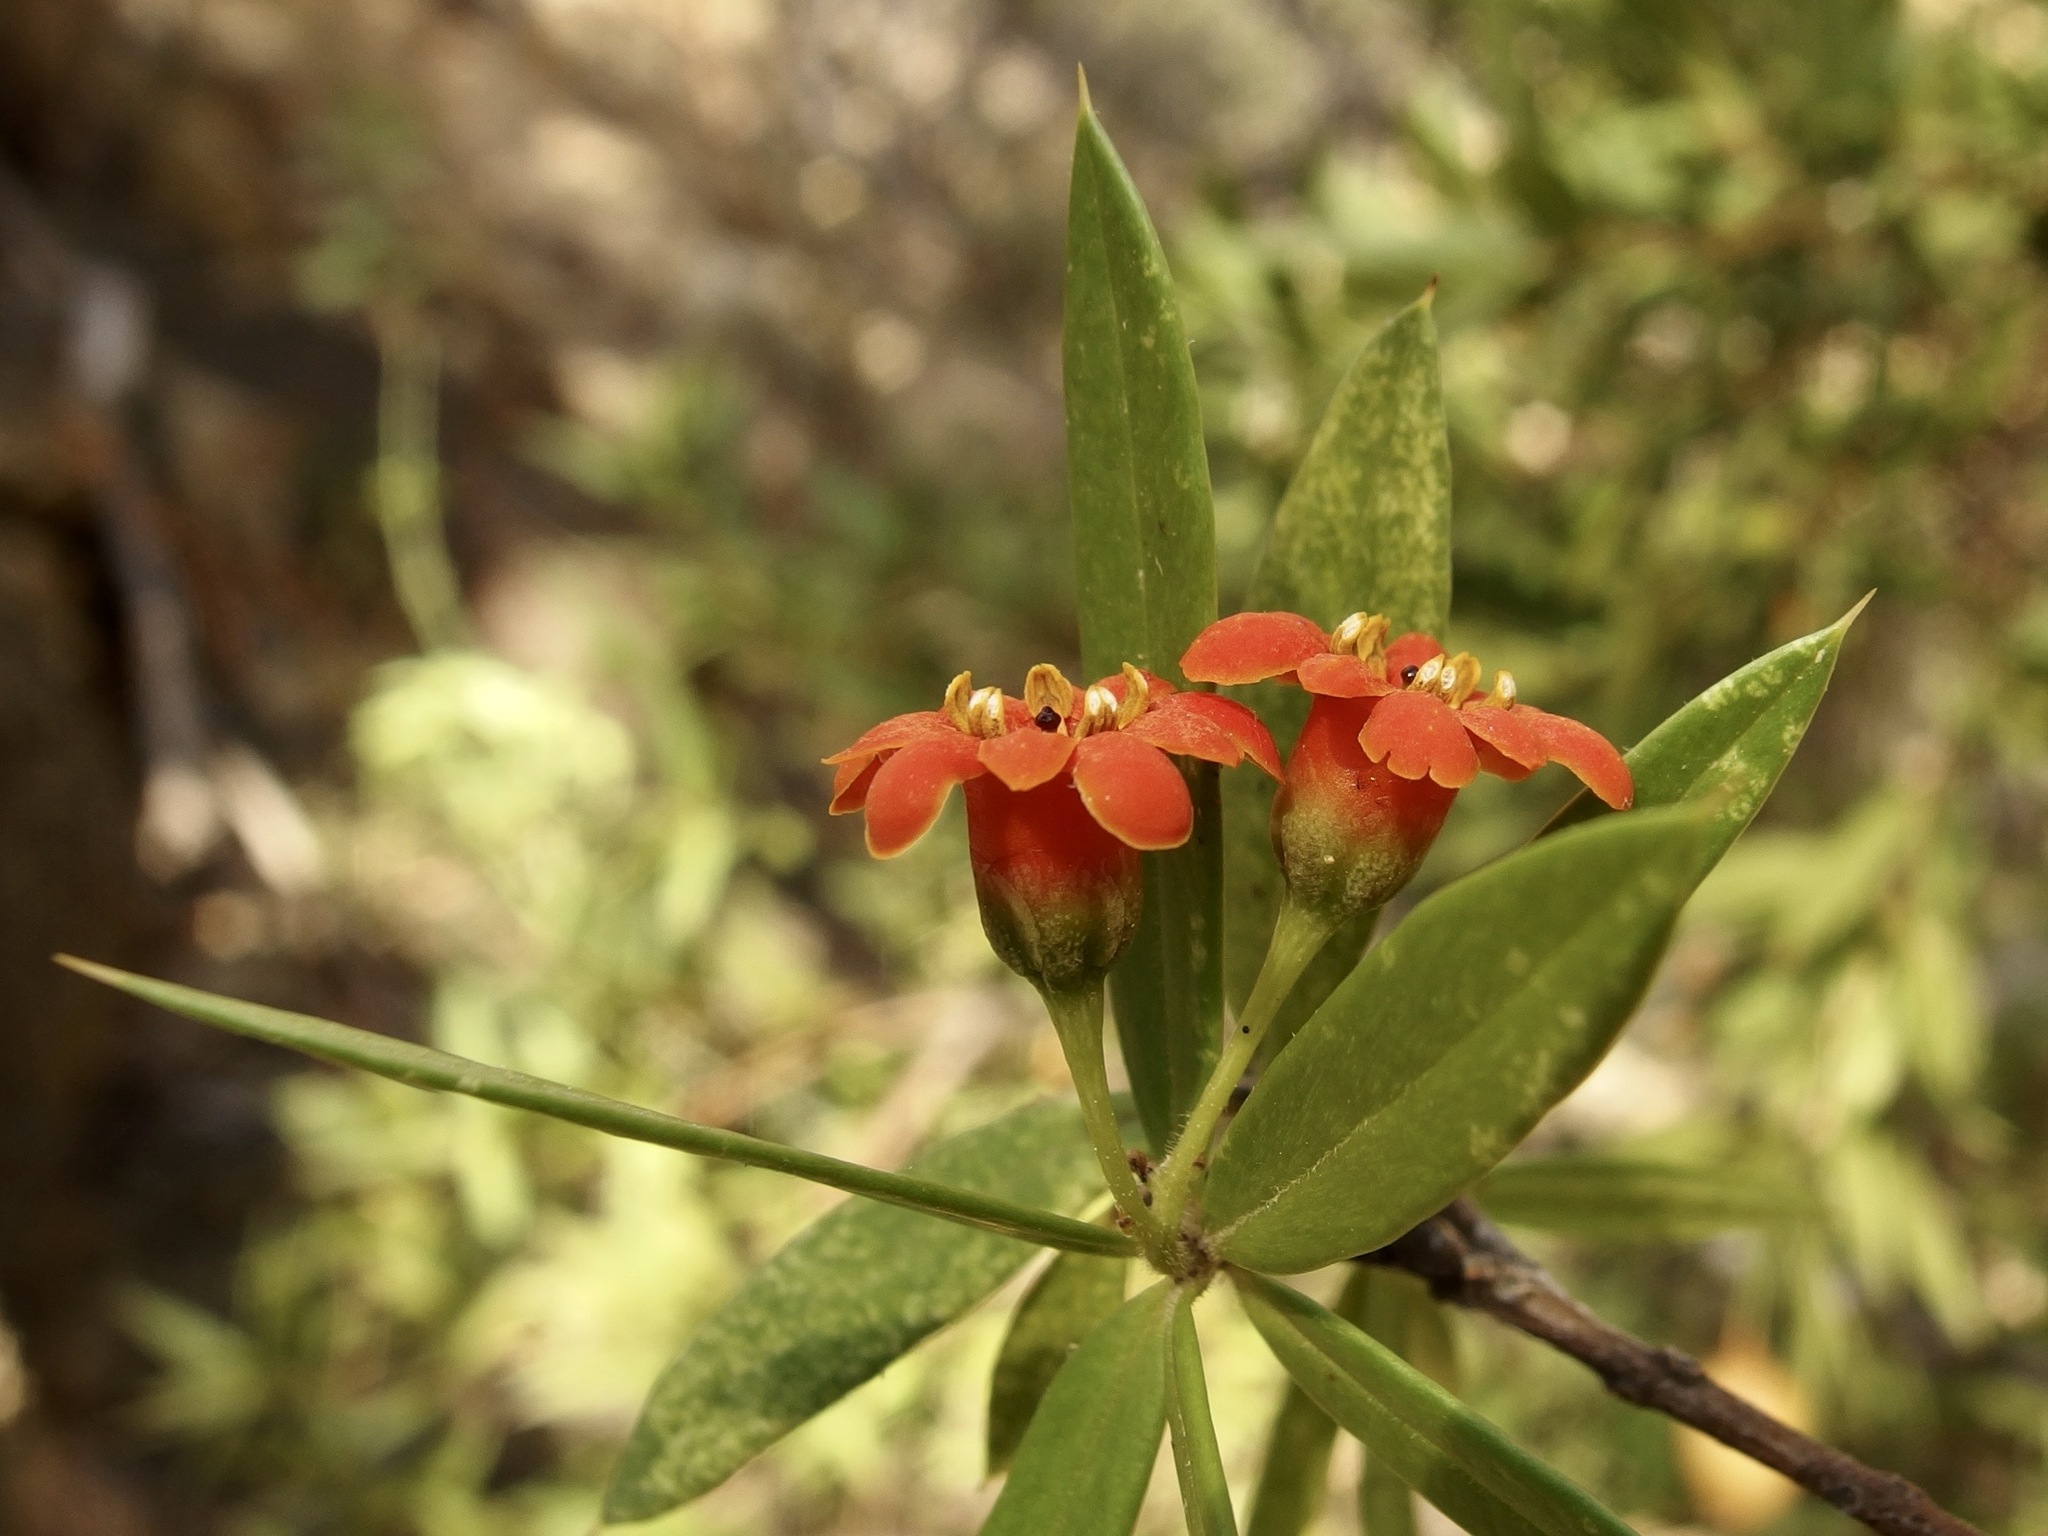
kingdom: Plantae
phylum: Tracheophyta
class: Magnoliopsida
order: Ericales
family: Primulaceae
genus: Bonellia
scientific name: Bonellia macrocarpa
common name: Primrose
